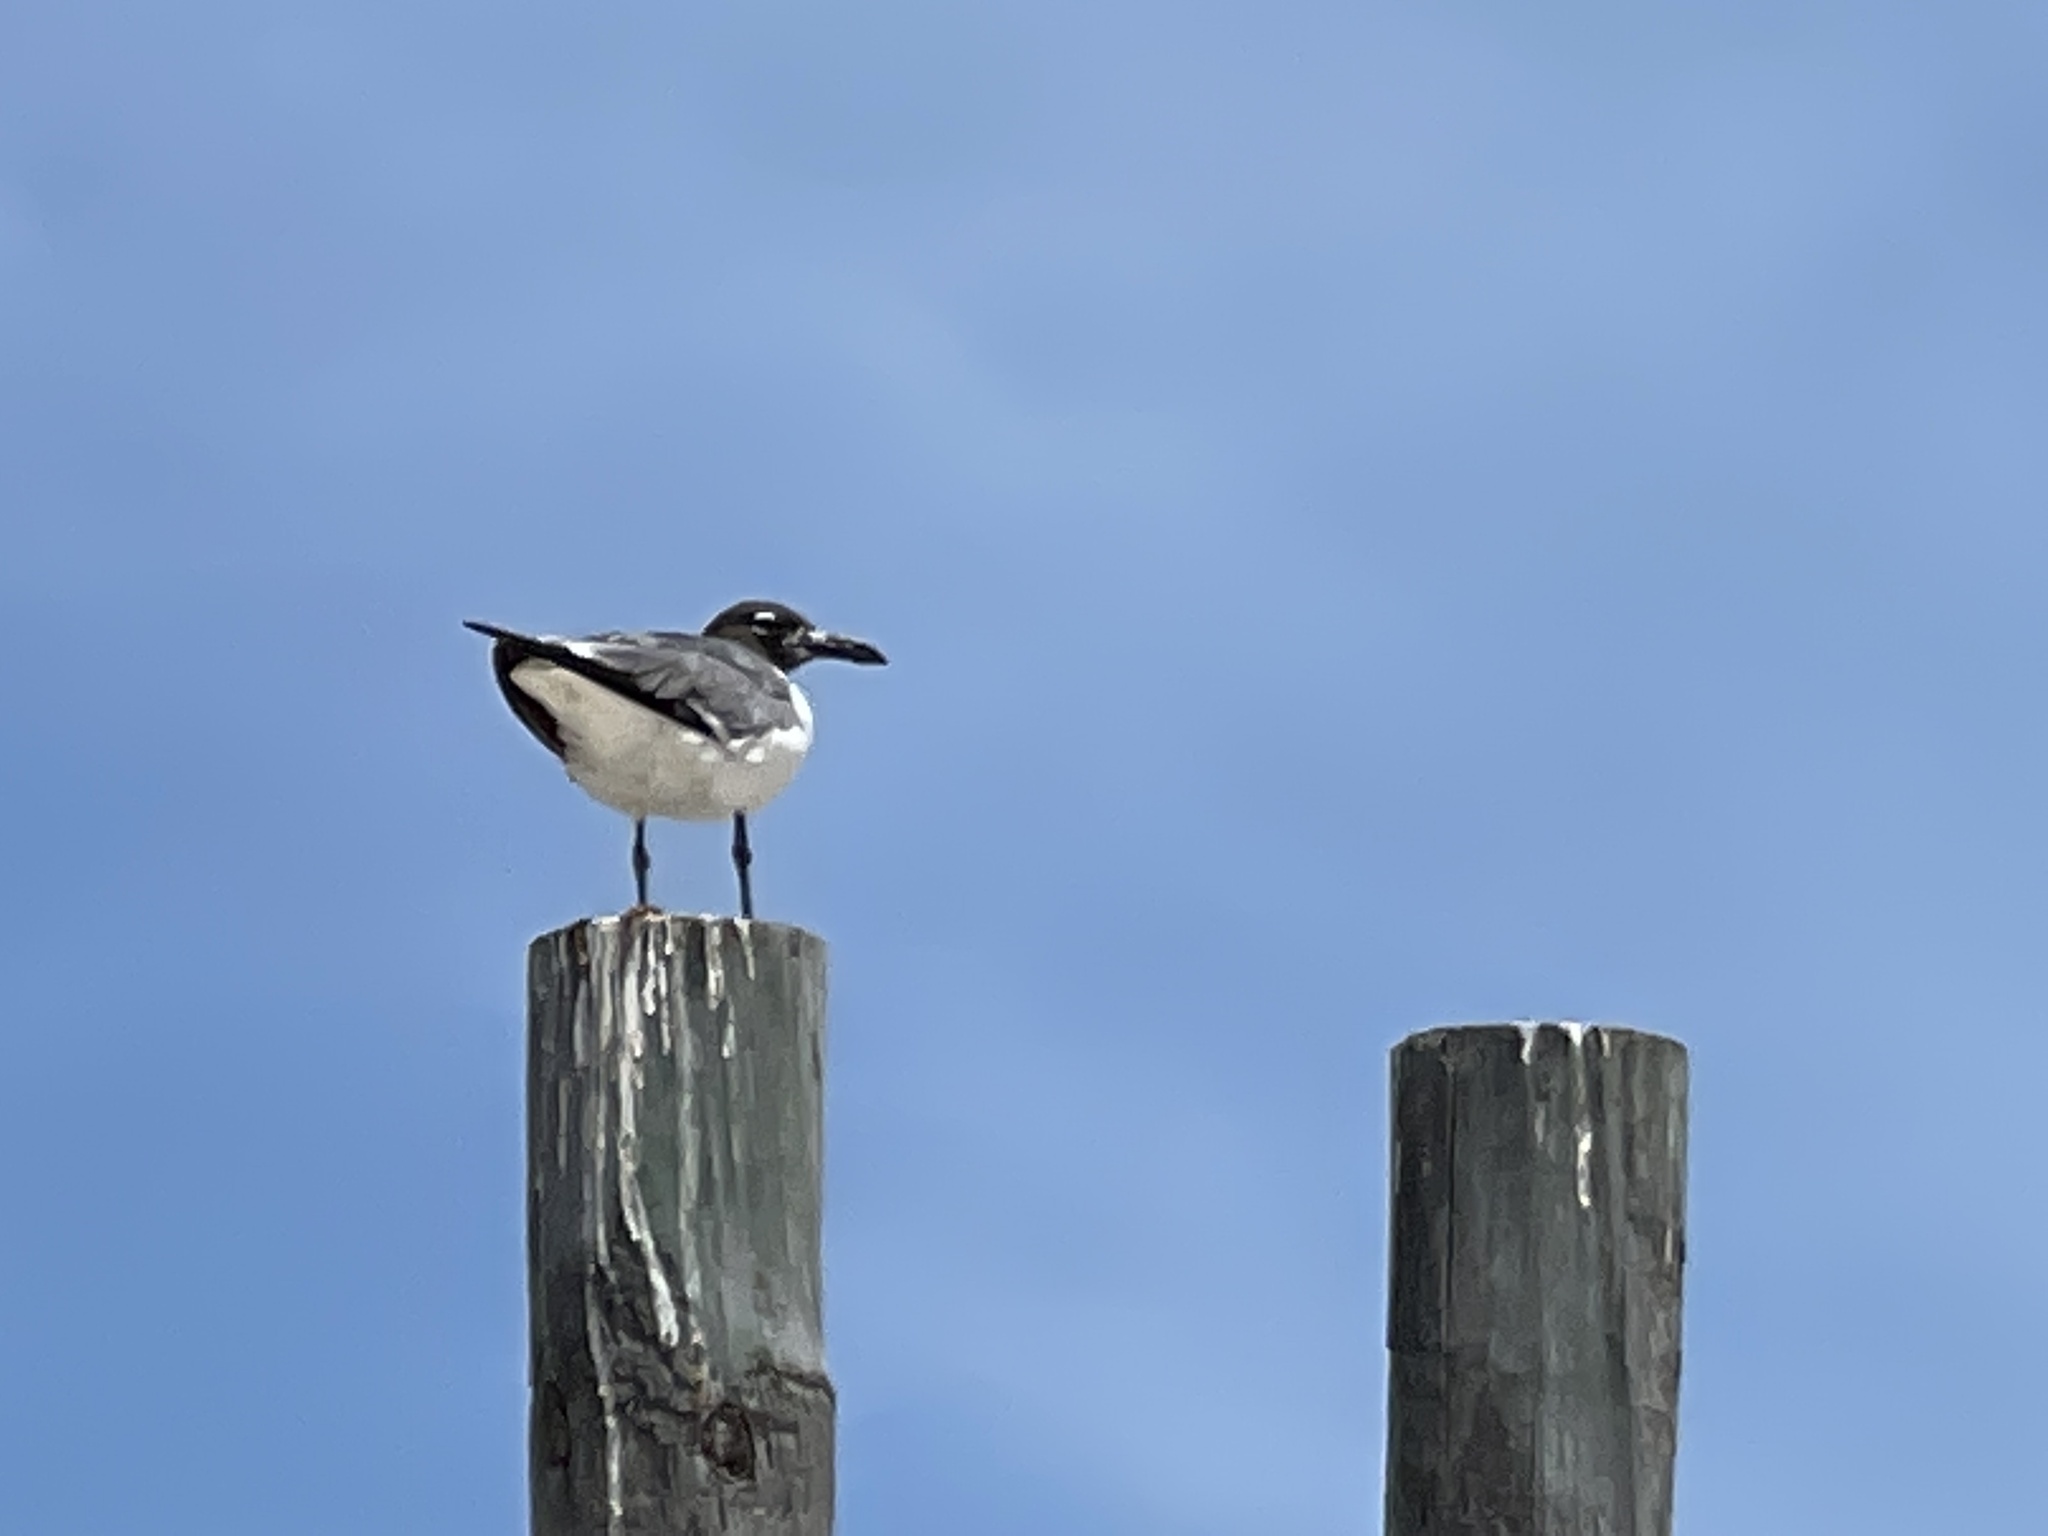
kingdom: Animalia
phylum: Chordata
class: Aves
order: Charadriiformes
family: Laridae
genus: Leucophaeus
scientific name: Leucophaeus atricilla
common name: Laughing gull
